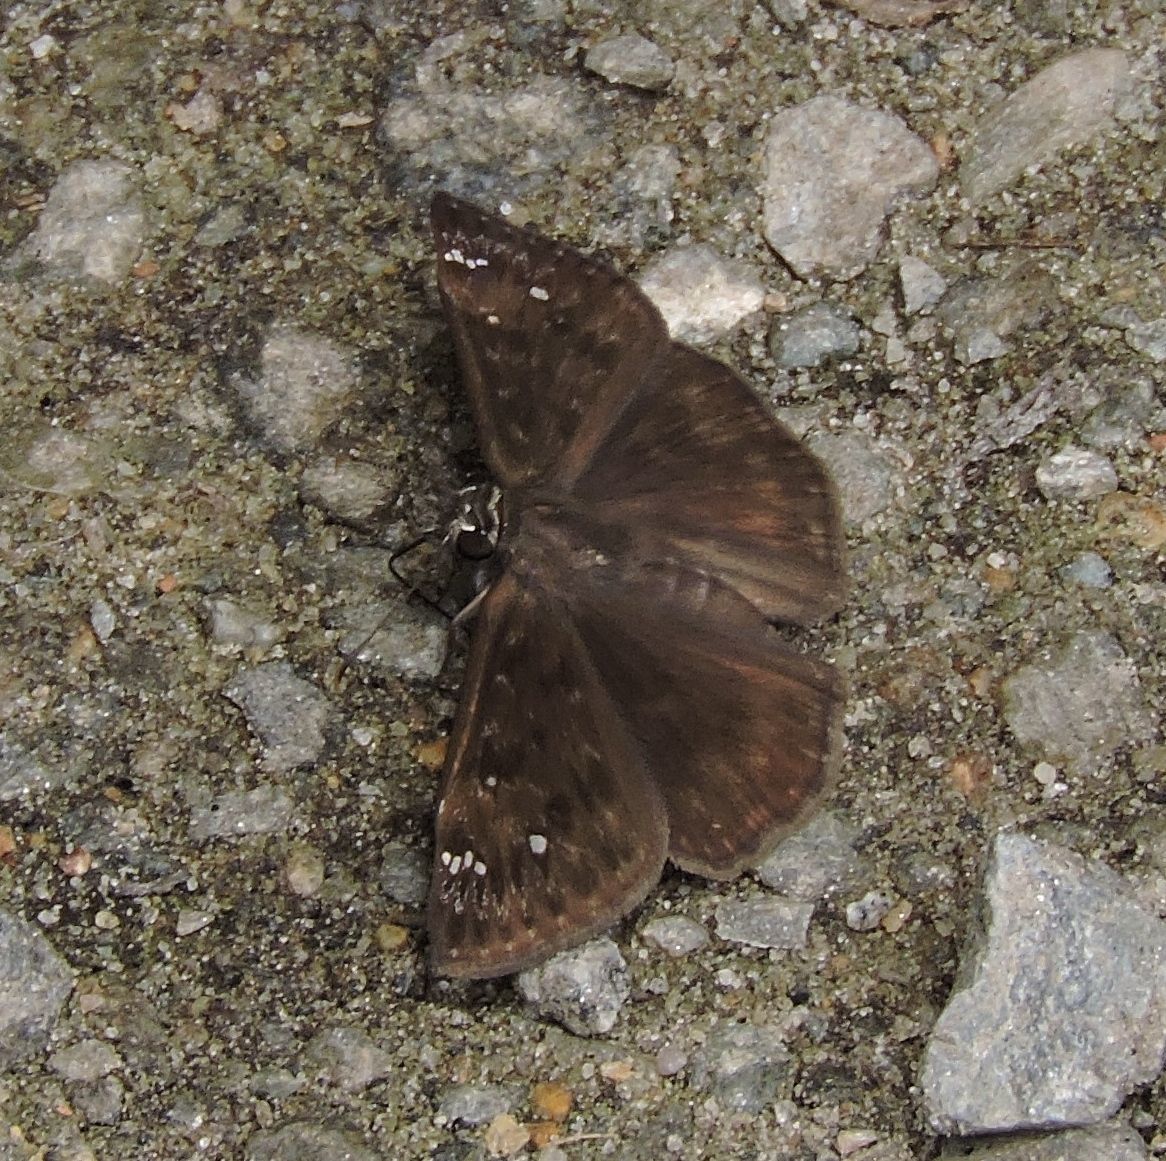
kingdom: Animalia
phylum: Arthropoda
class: Insecta
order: Lepidoptera
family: Hesperiidae
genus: Erynnis
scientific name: Erynnis horatius
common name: Horace's duskywing
